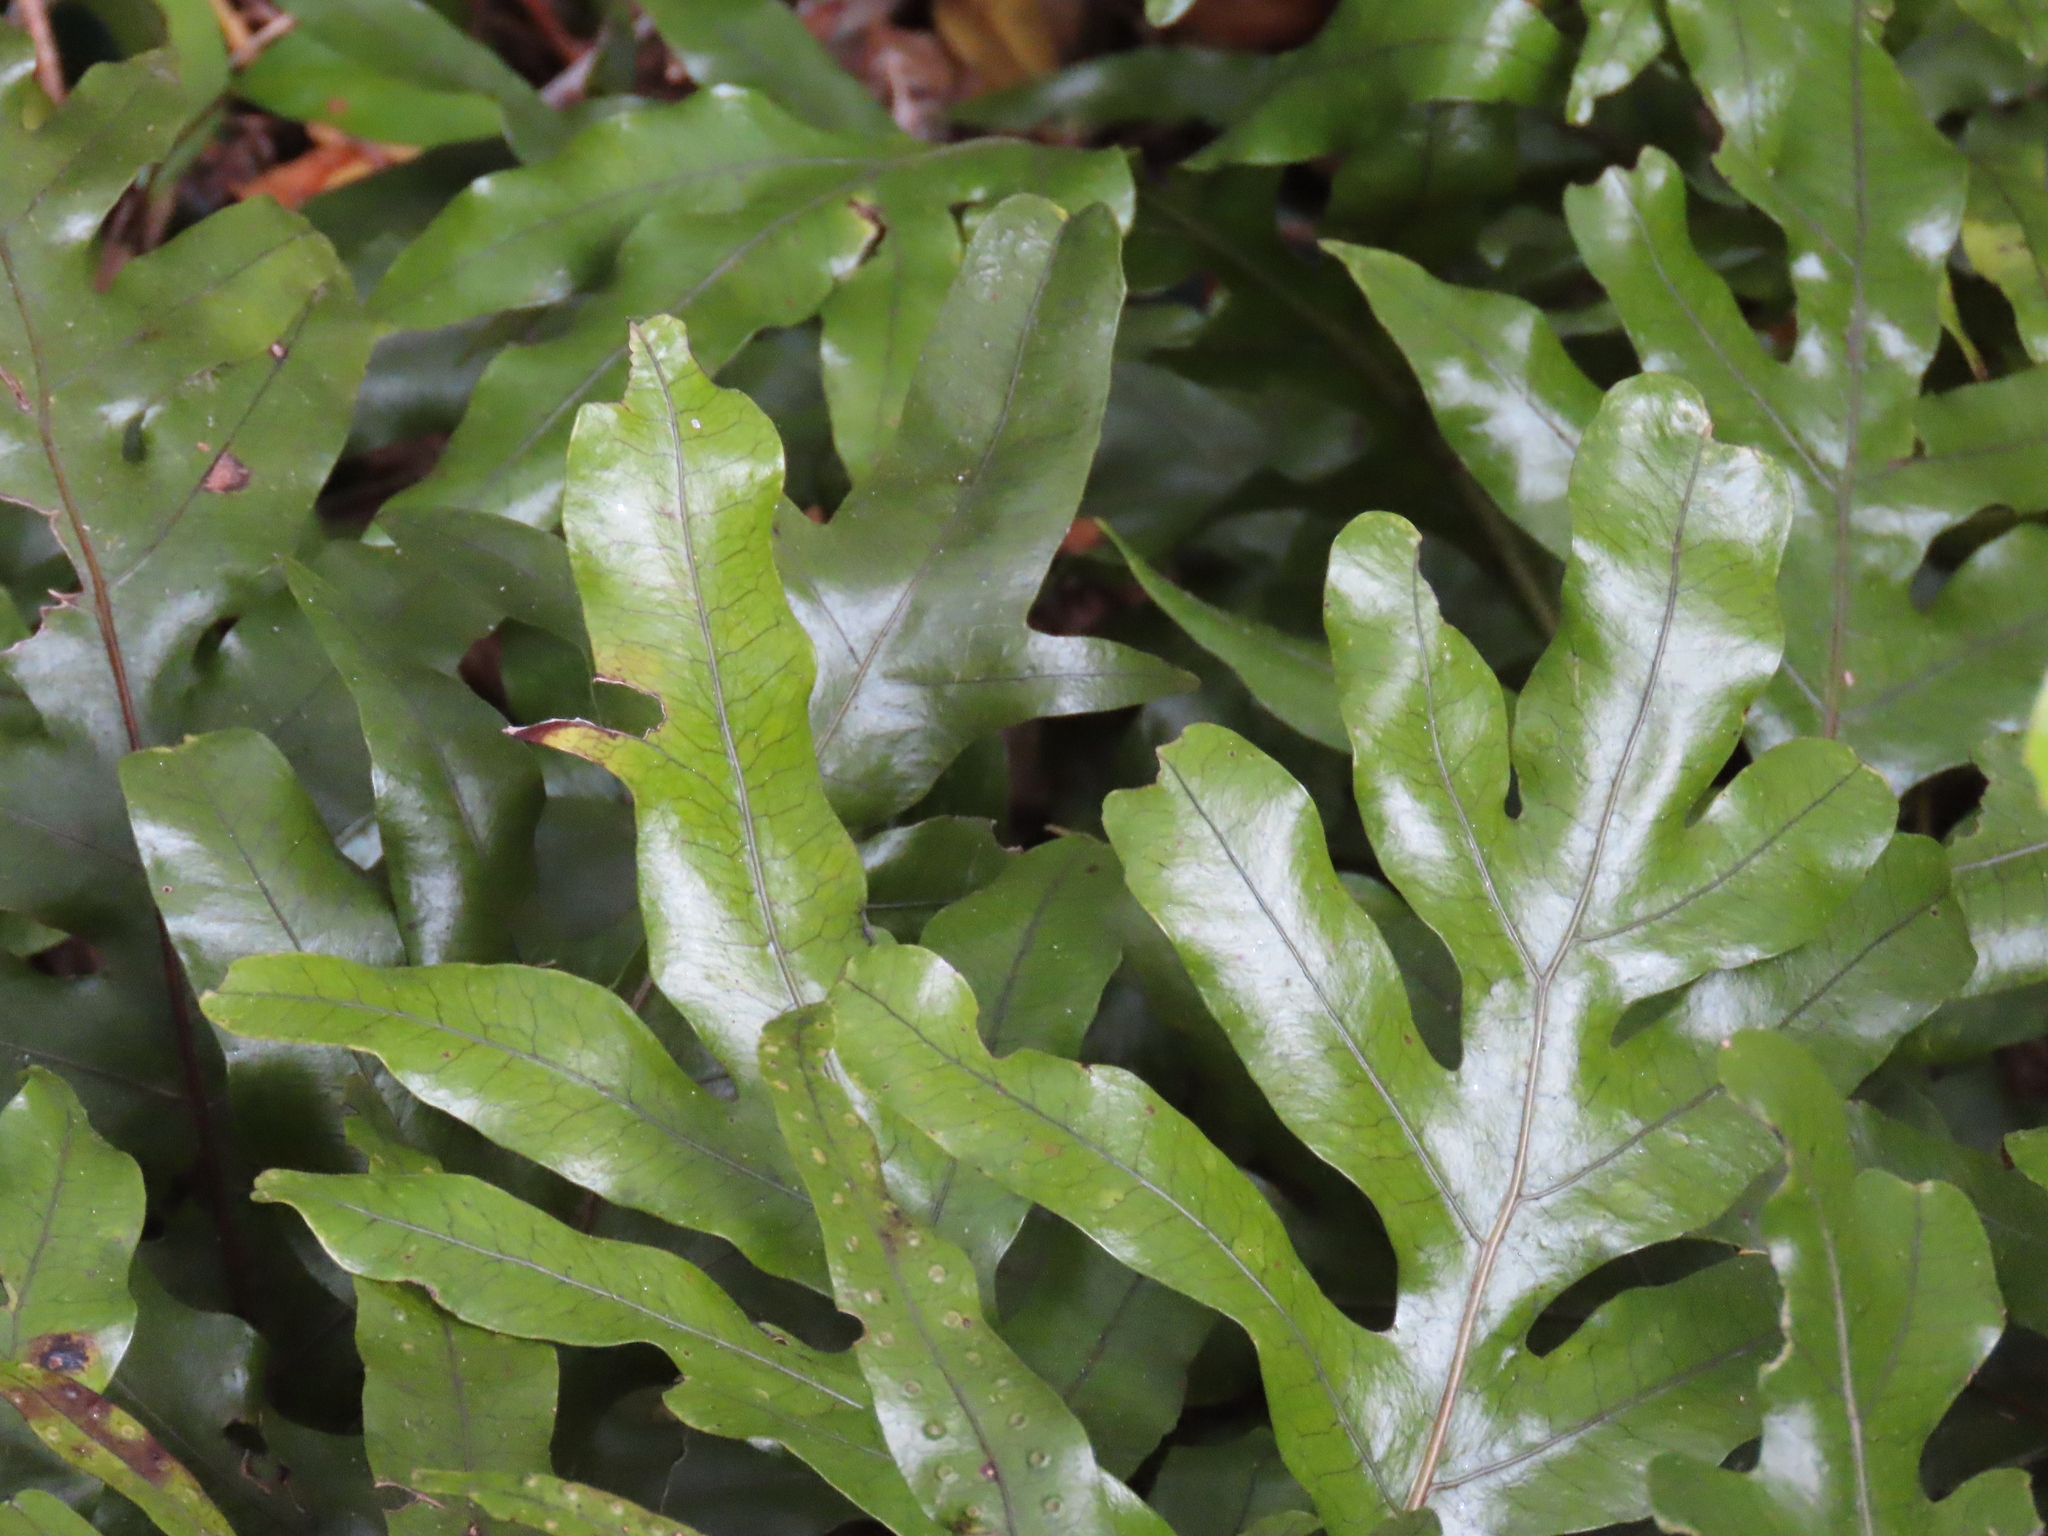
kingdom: Plantae
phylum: Tracheophyta
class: Polypodiopsida
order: Polypodiales
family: Polypodiaceae
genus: Lecanopteris
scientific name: Lecanopteris pustulata
